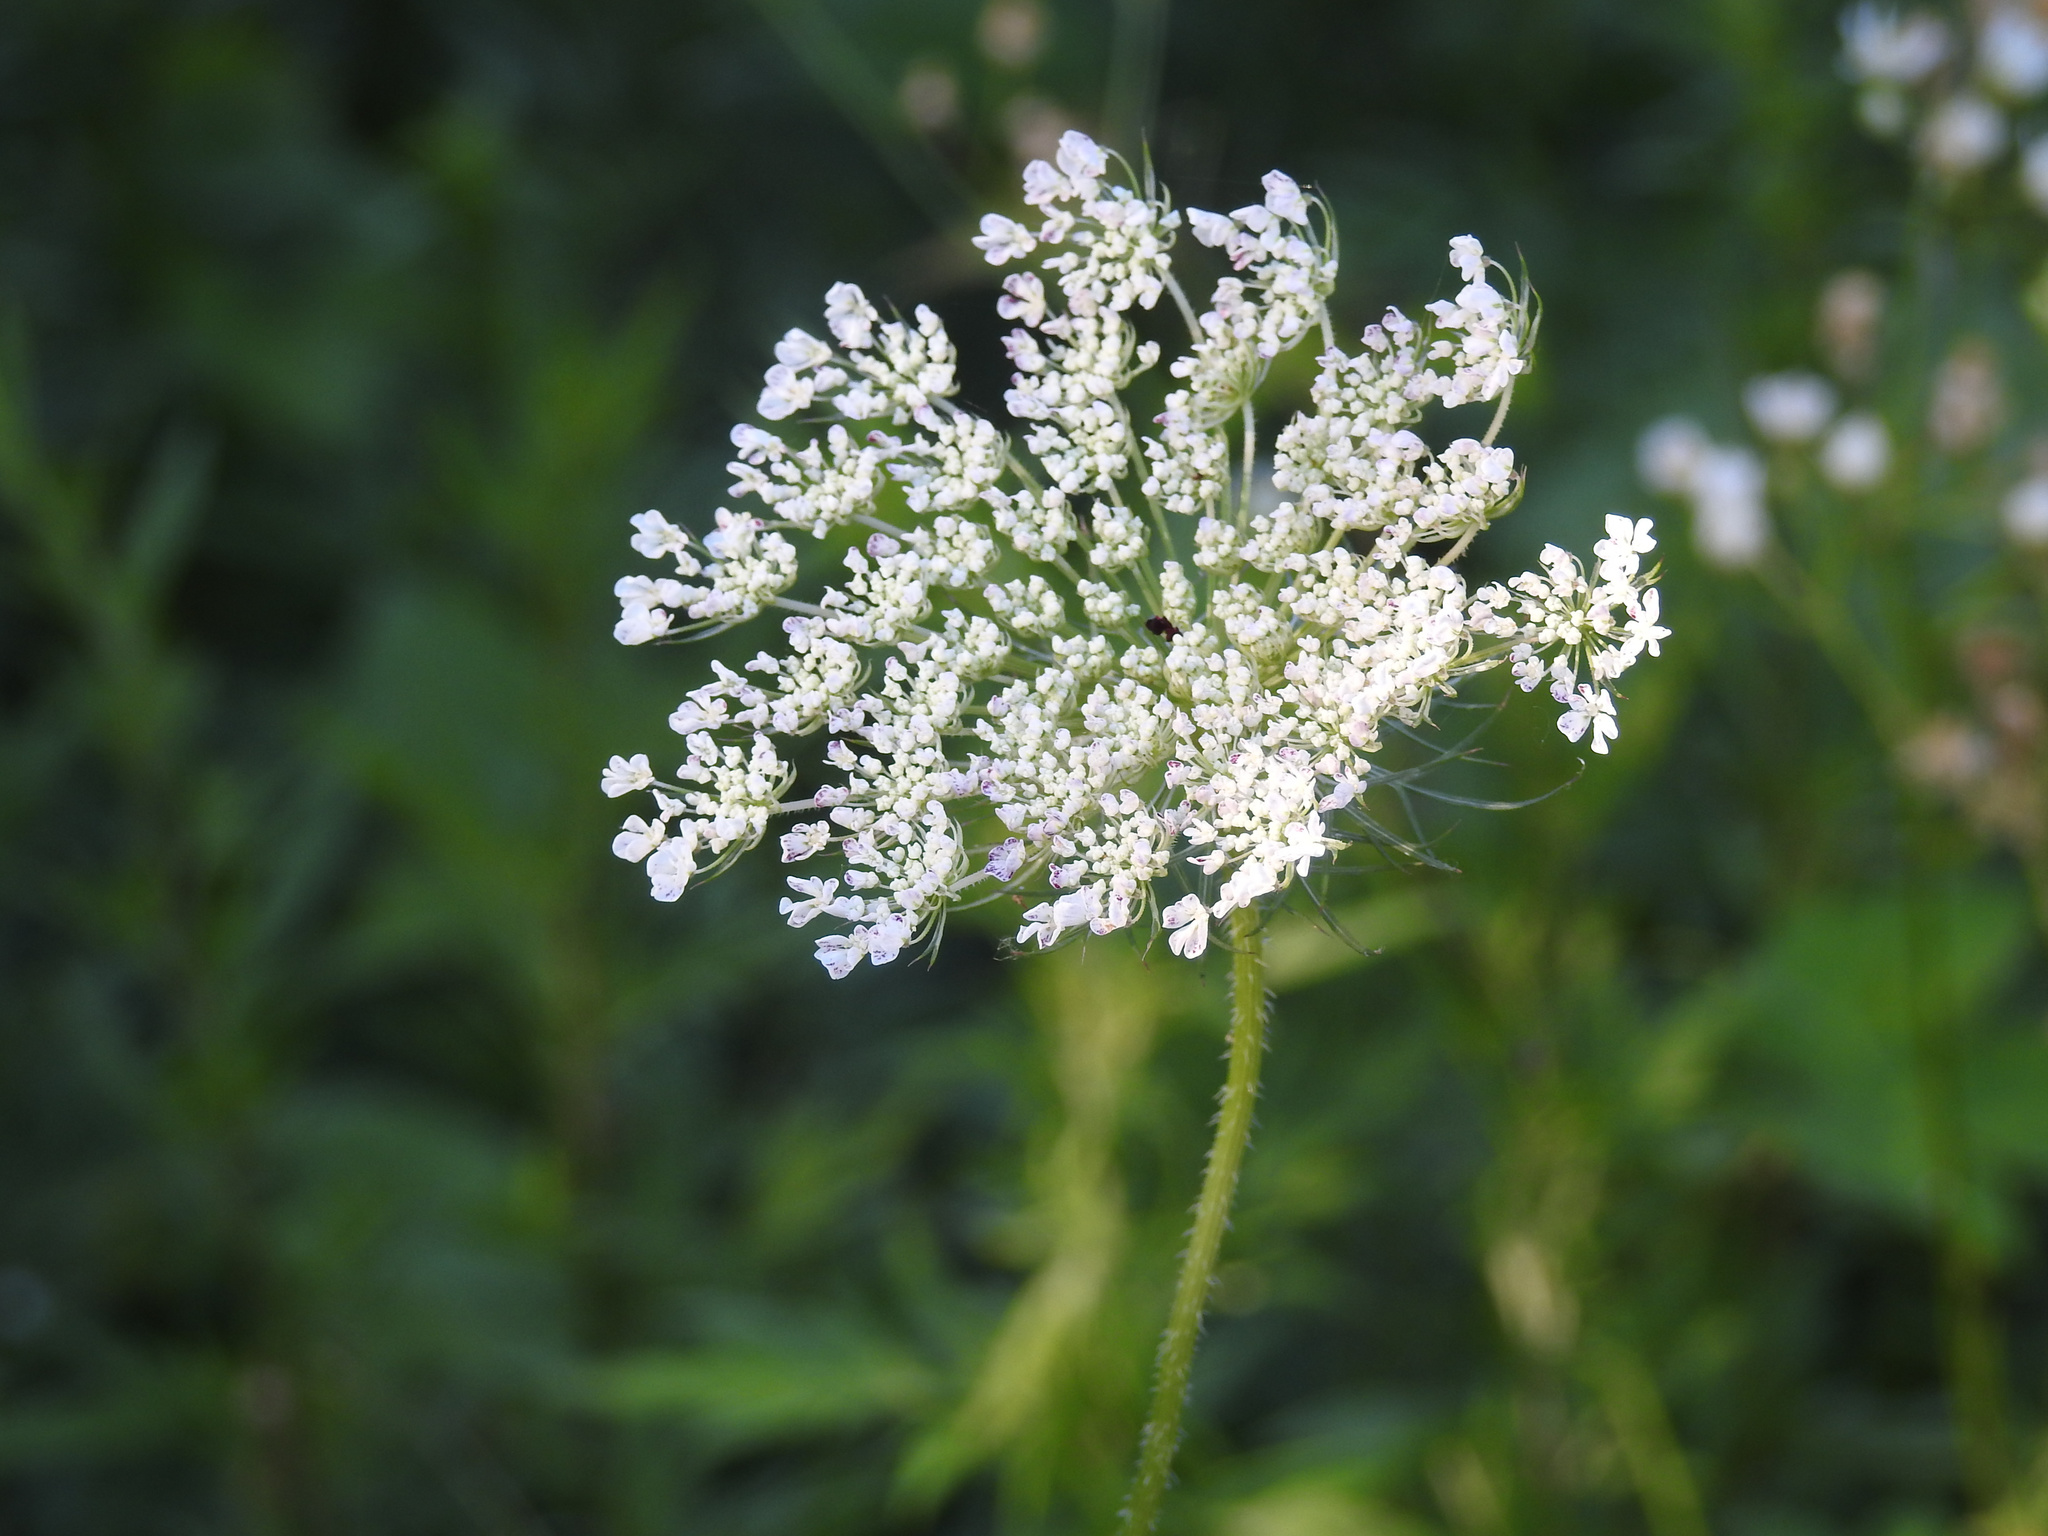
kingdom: Plantae
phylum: Tracheophyta
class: Magnoliopsida
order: Apiales
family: Apiaceae
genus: Daucus
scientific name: Daucus carota
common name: Wild carrot
